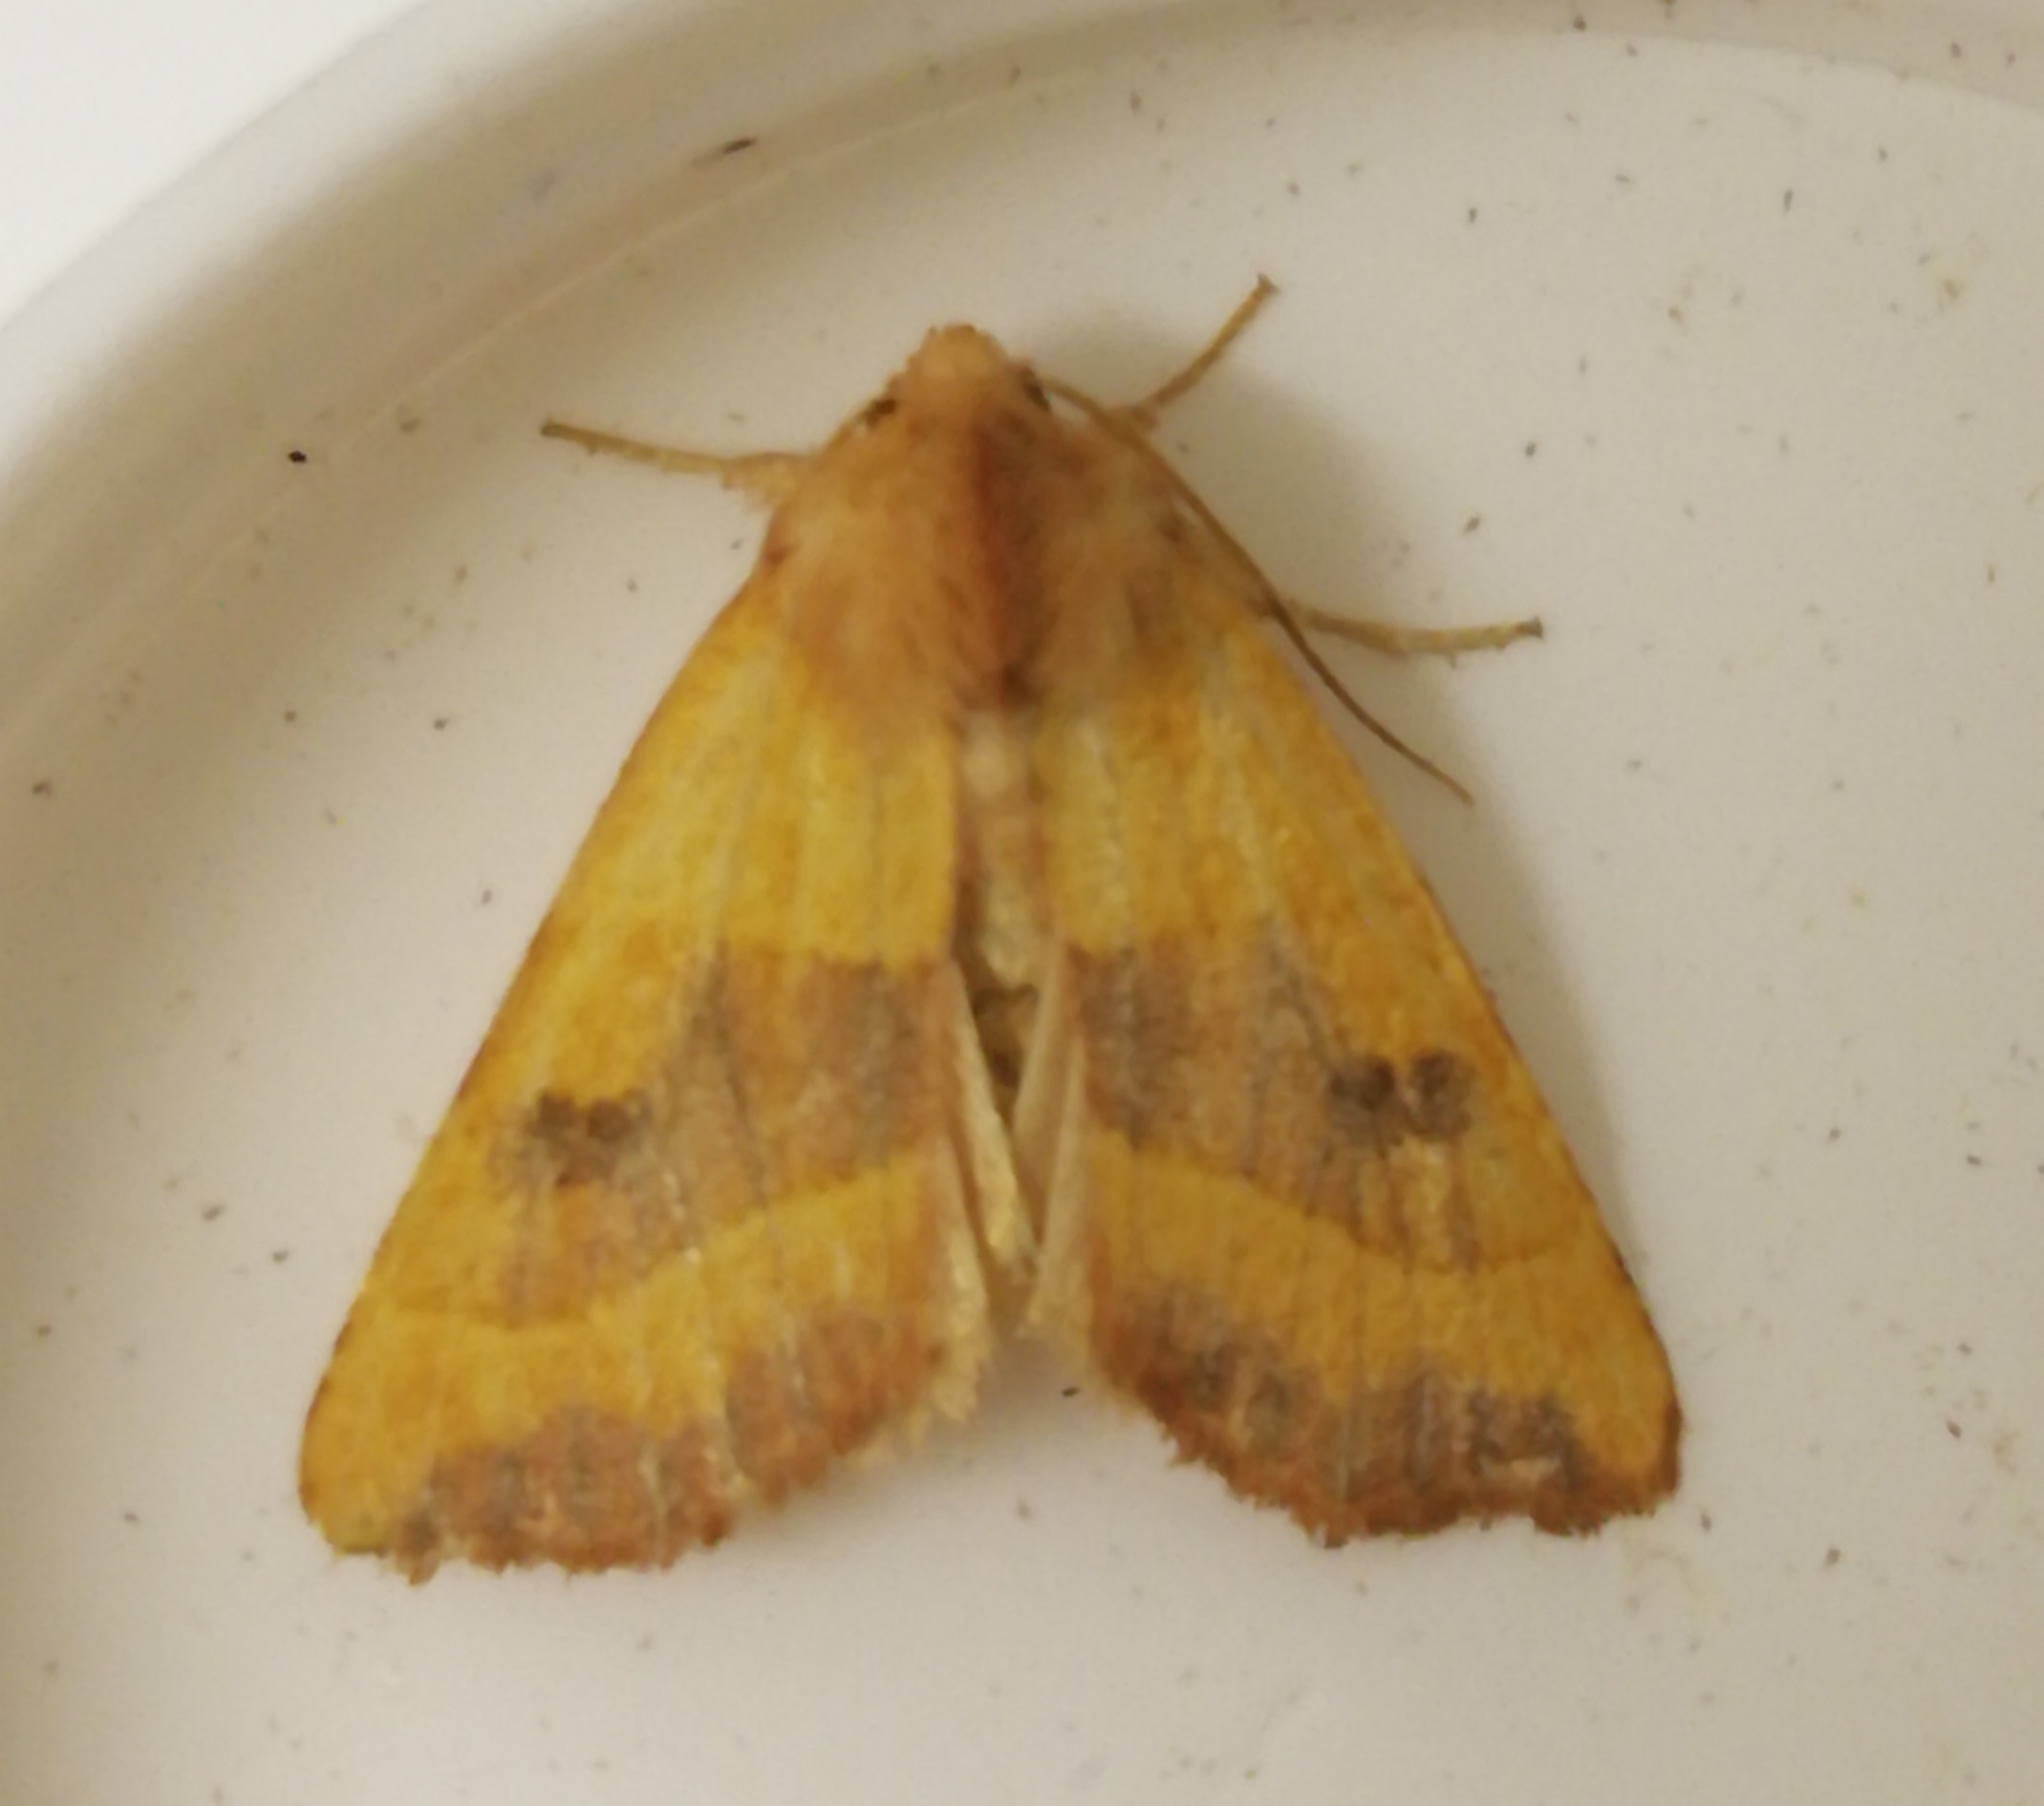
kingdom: Animalia
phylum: Arthropoda
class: Insecta
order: Lepidoptera
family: Noctuidae
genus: Atethmia
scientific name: Atethmia centrago
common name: Centre-barred sallow
